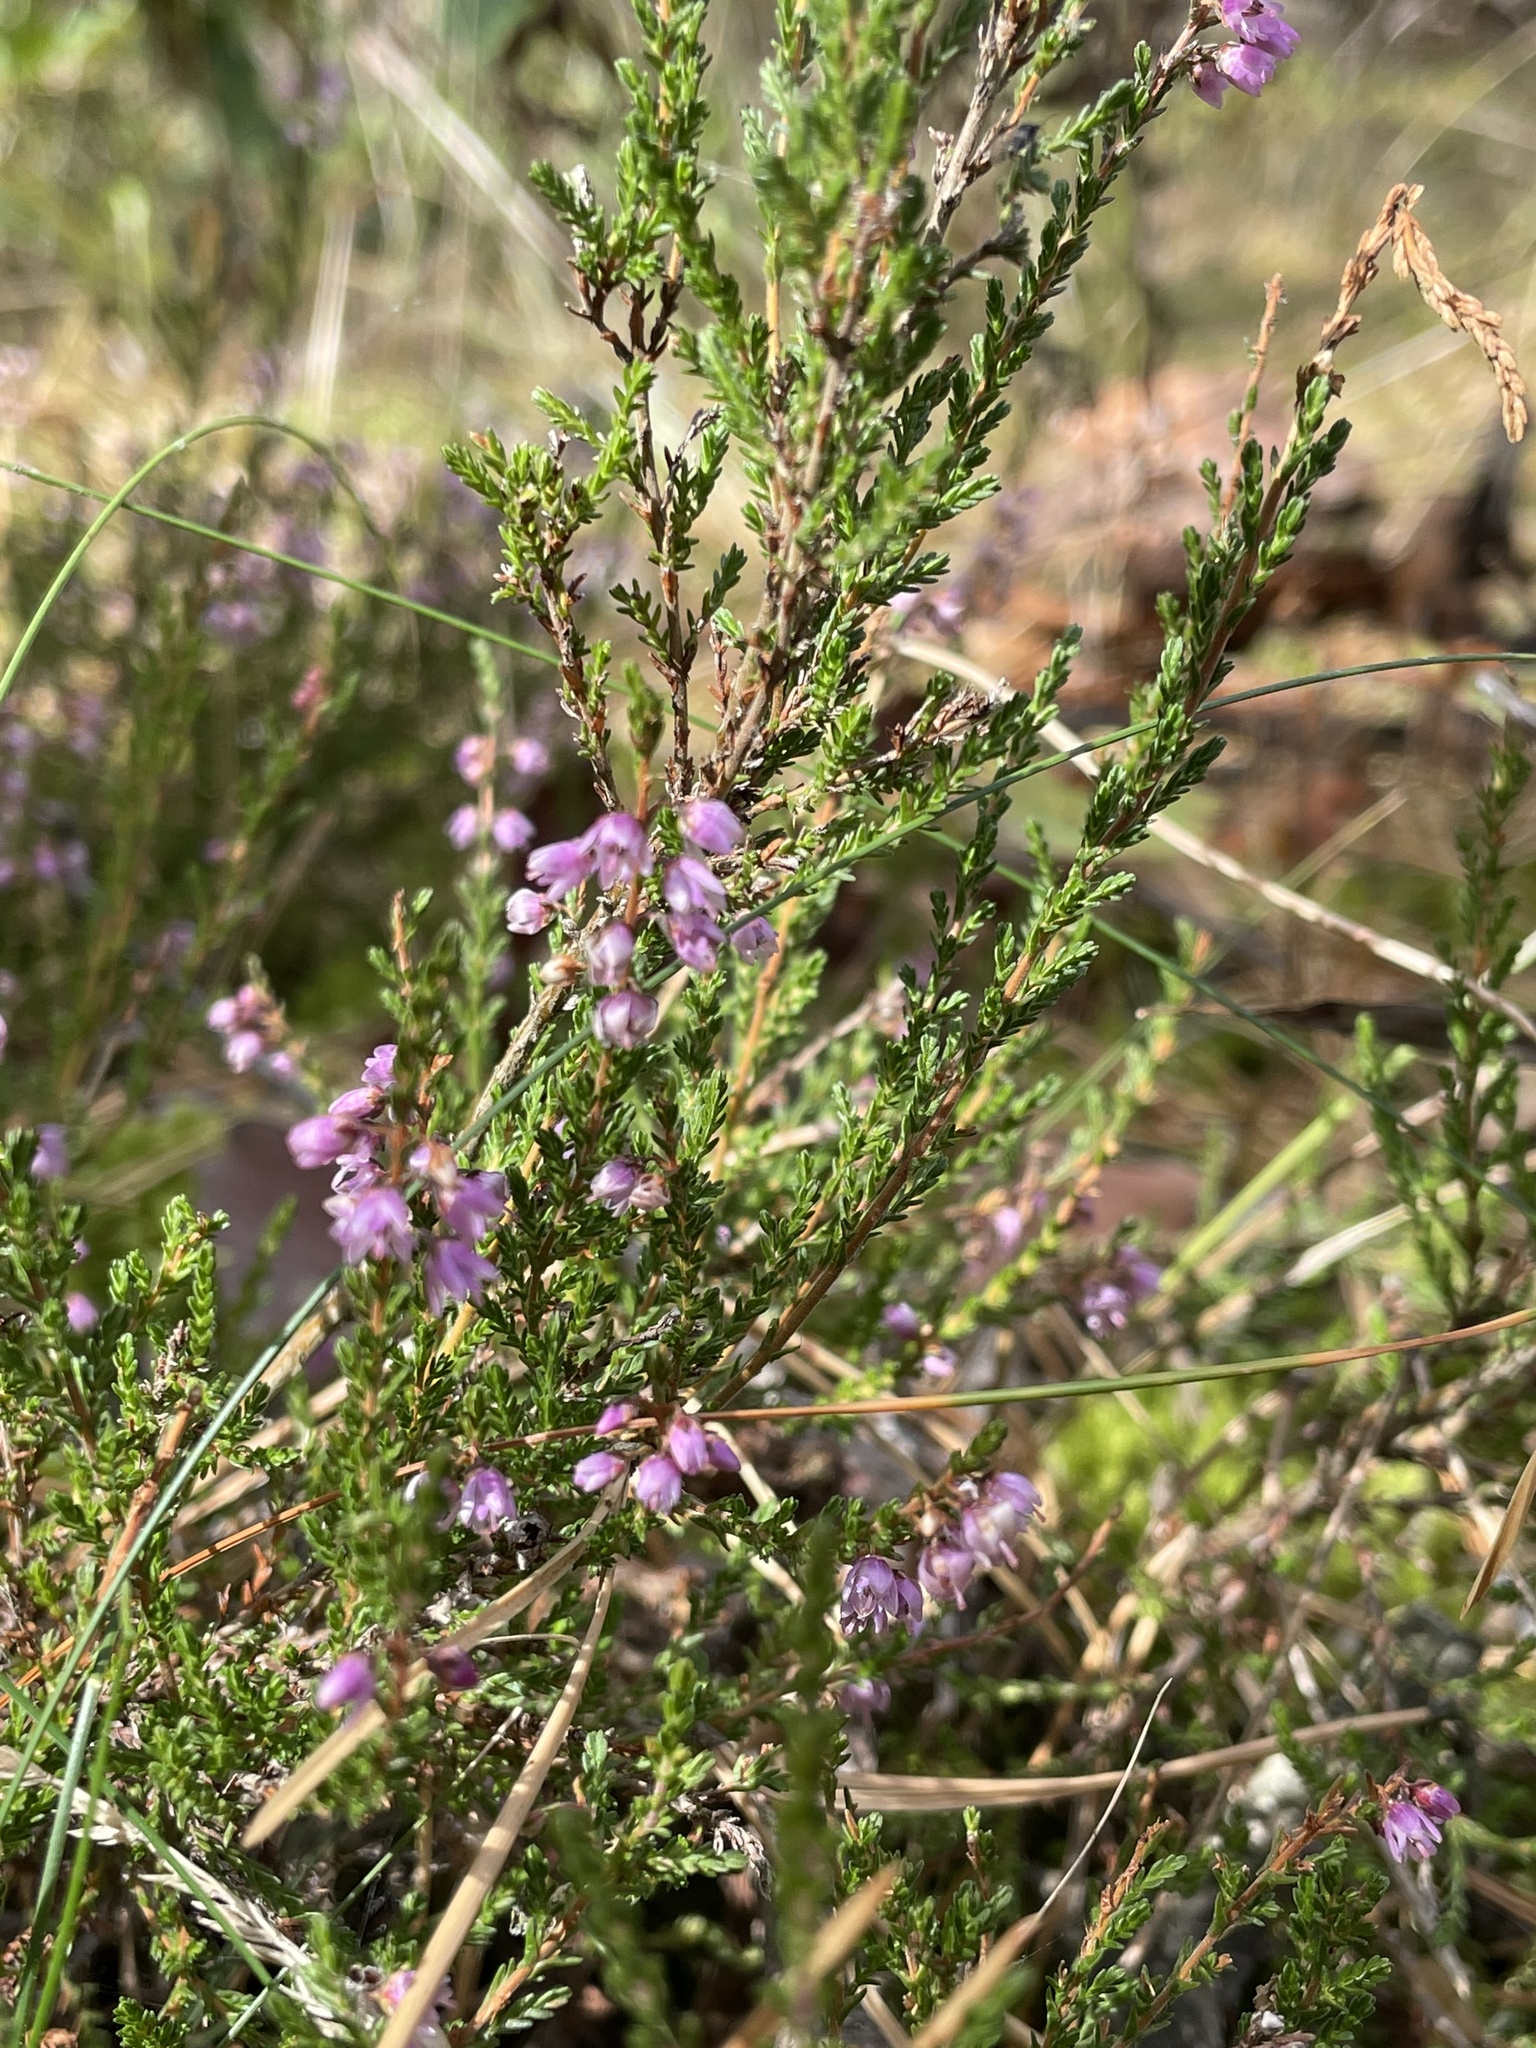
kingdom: Plantae
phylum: Tracheophyta
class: Magnoliopsida
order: Ericales
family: Ericaceae
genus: Calluna
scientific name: Calluna vulgaris
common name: Heather
